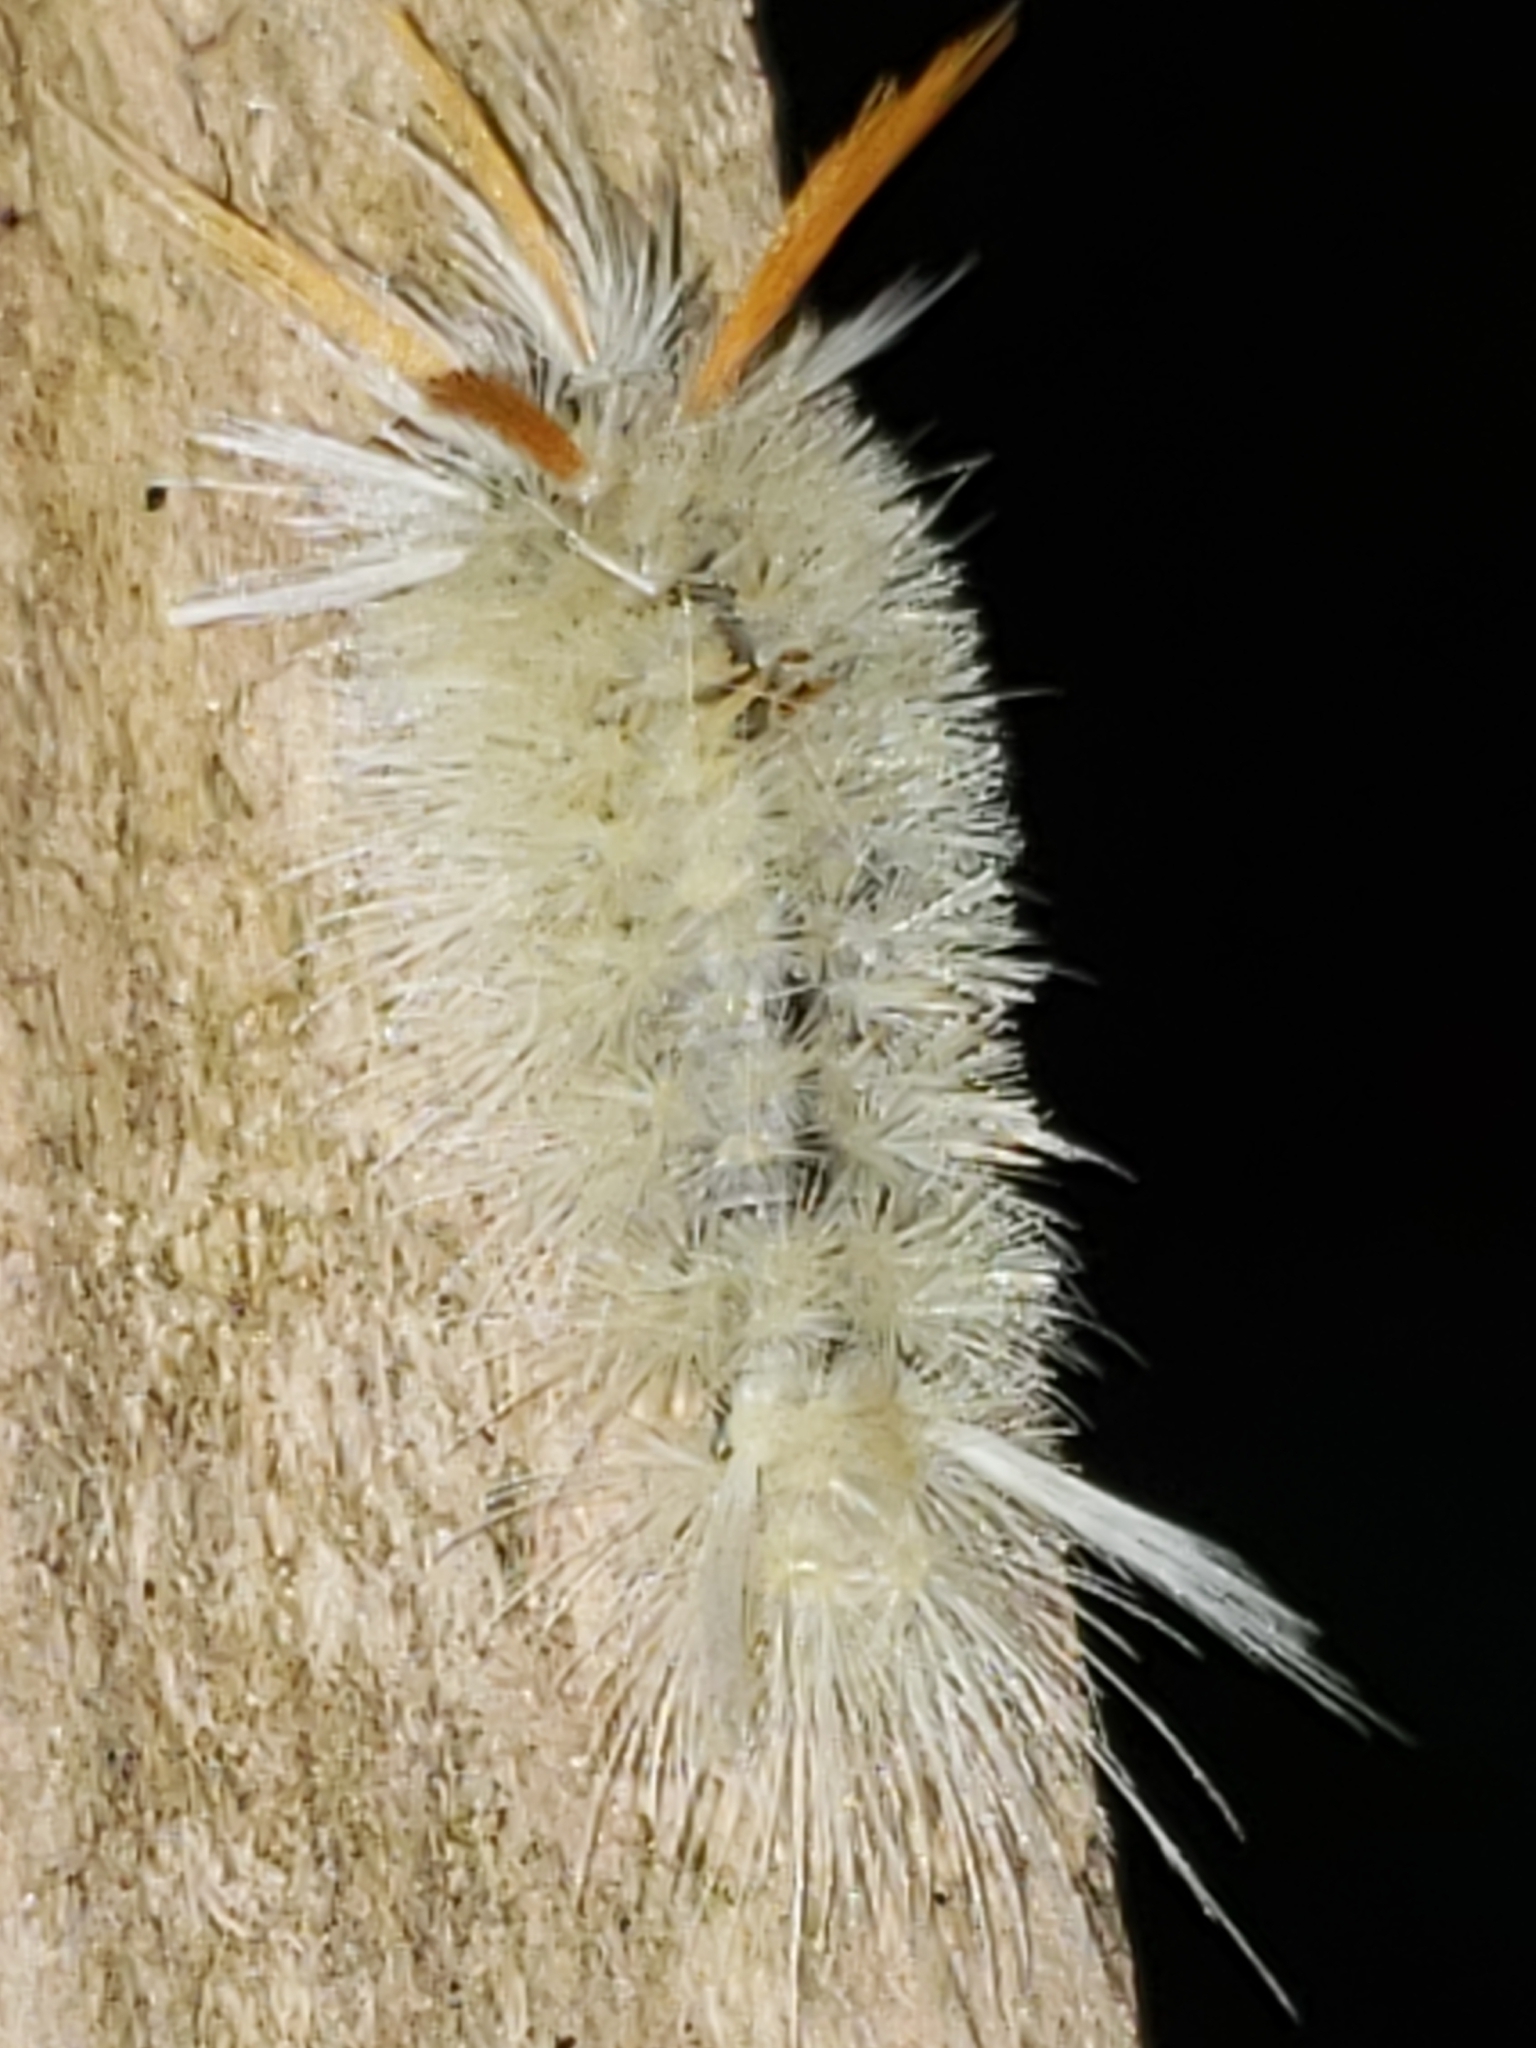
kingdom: Animalia
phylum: Arthropoda
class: Insecta
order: Lepidoptera
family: Erebidae
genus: Halysidota
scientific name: Halysidota harrisii
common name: Sycamore tussock moth
